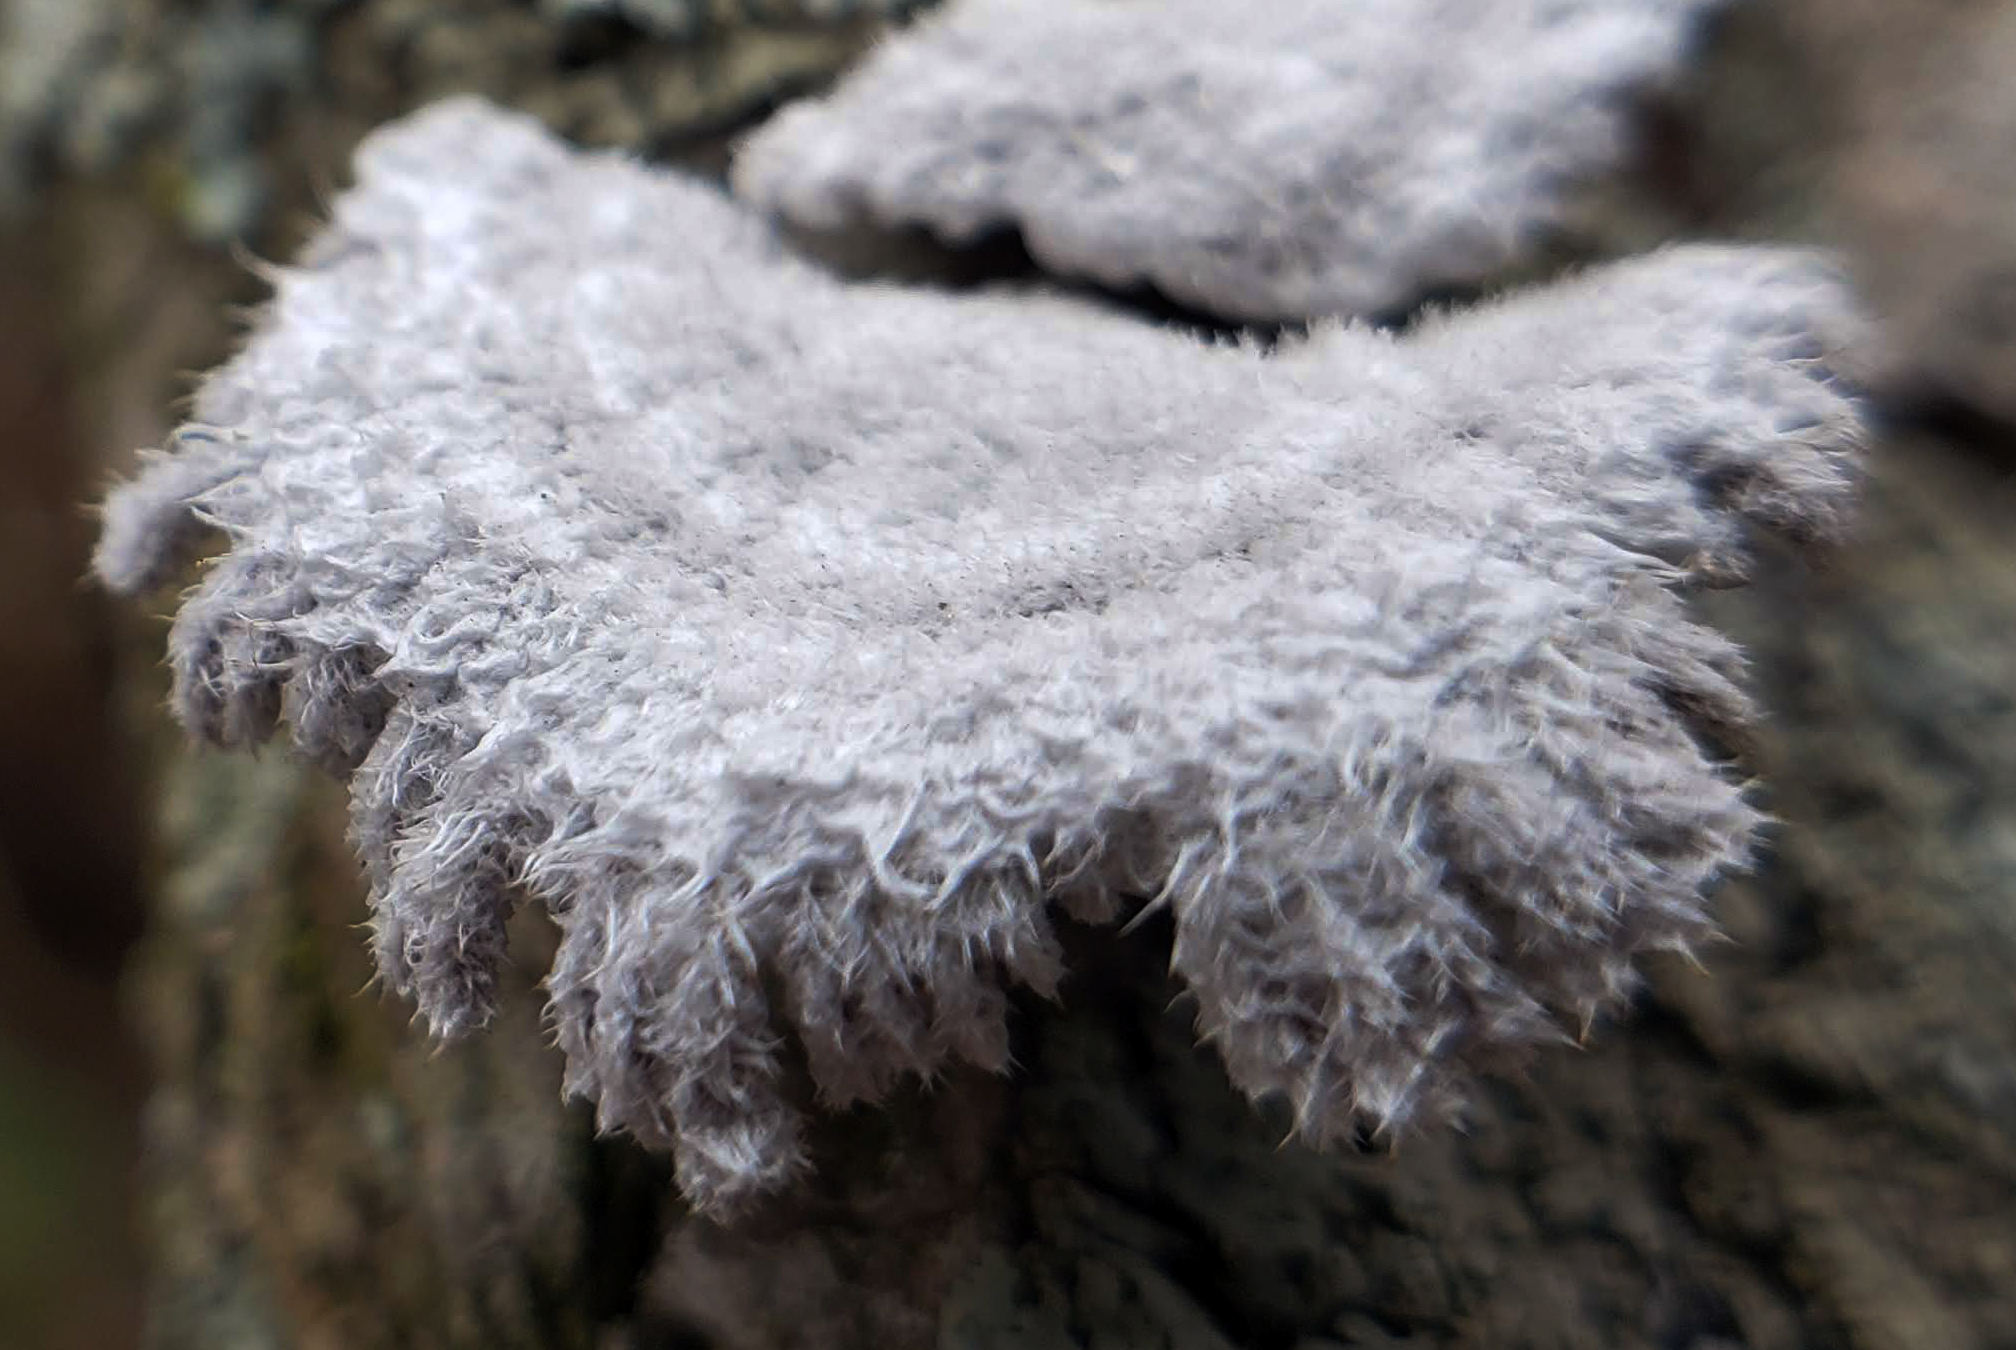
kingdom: Fungi
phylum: Basidiomycota
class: Agaricomycetes
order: Agaricales
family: Schizophyllaceae
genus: Schizophyllum
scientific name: Schizophyllum commune
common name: Common porecrust
